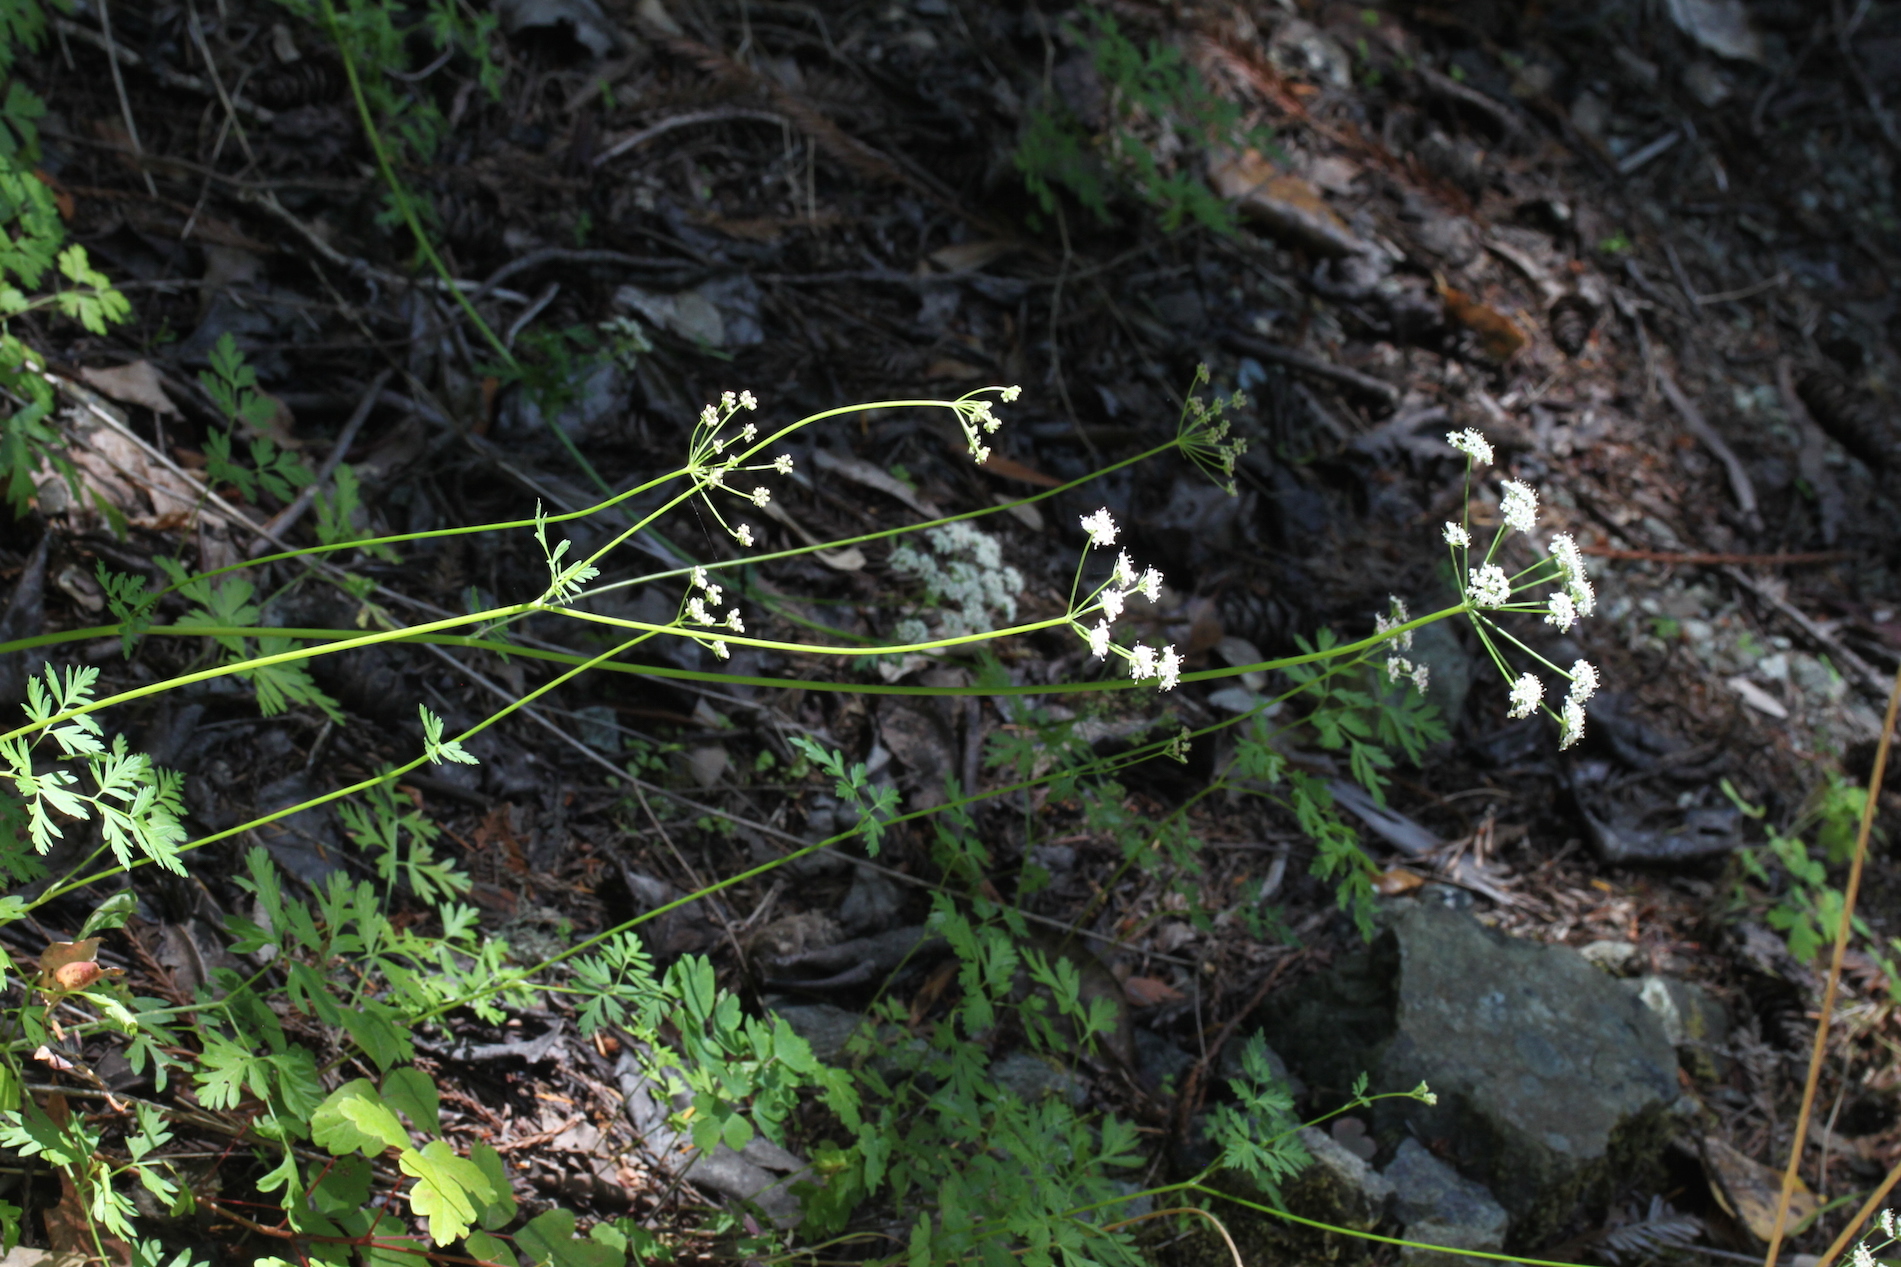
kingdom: Plantae
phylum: Tracheophyta
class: Magnoliopsida
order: Apiales
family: Apiaceae
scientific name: Apiaceae
